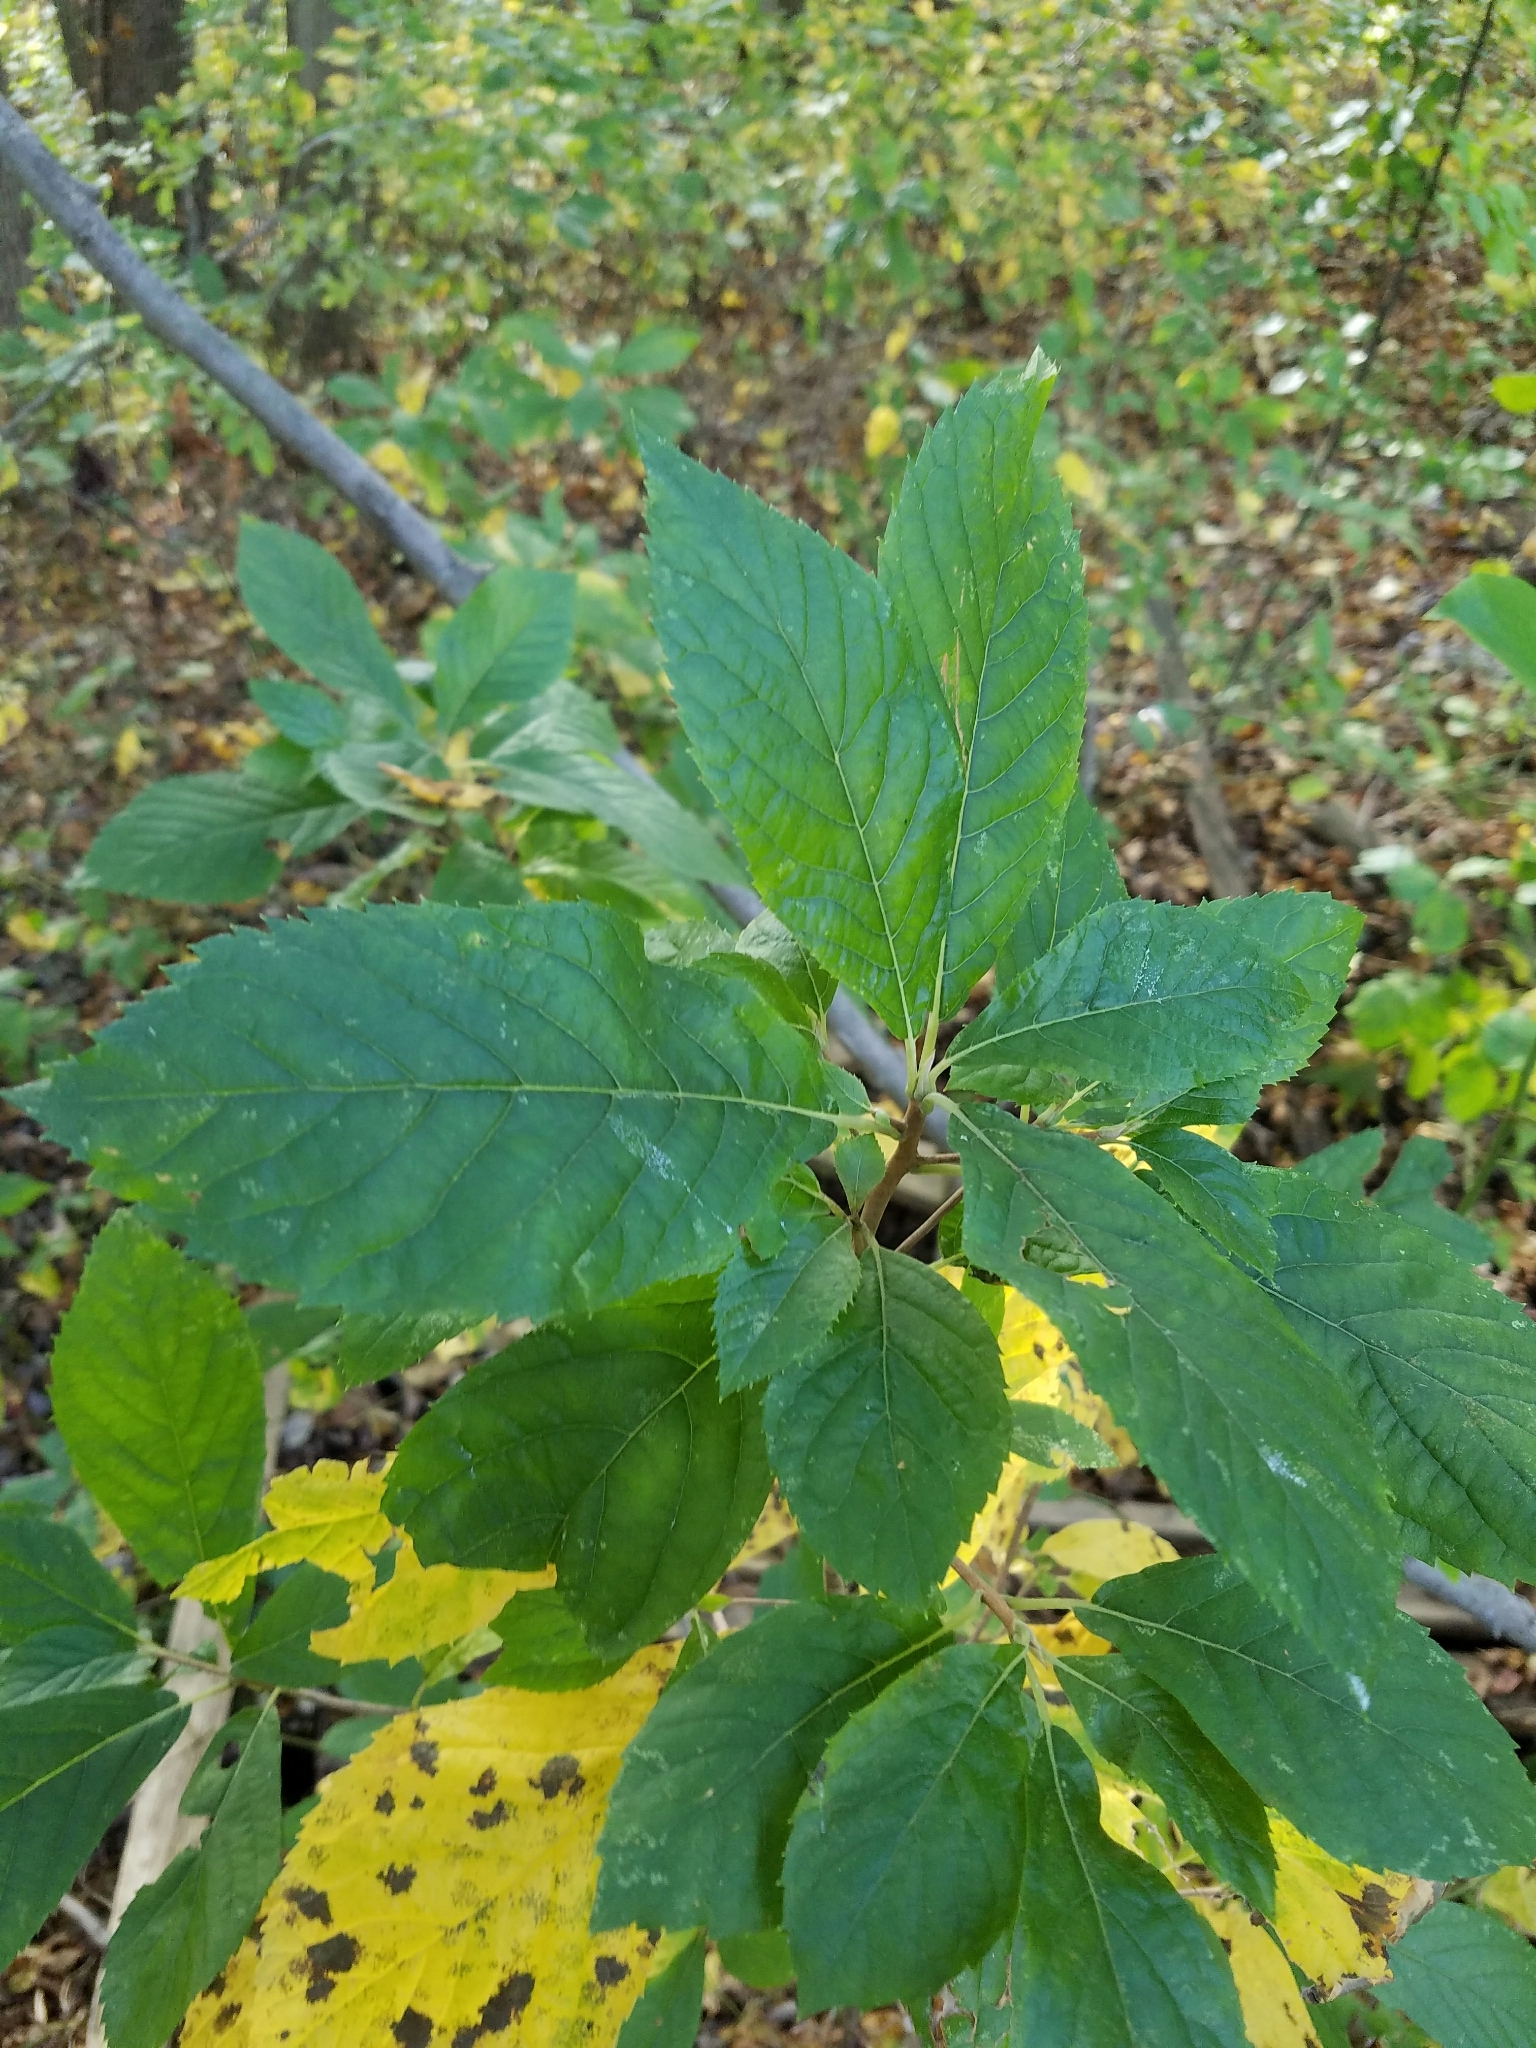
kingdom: Plantae
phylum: Tracheophyta
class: Magnoliopsida
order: Ericales
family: Clethraceae
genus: Clethra
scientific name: Clethra alnifolia
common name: Sweet pepperbush
